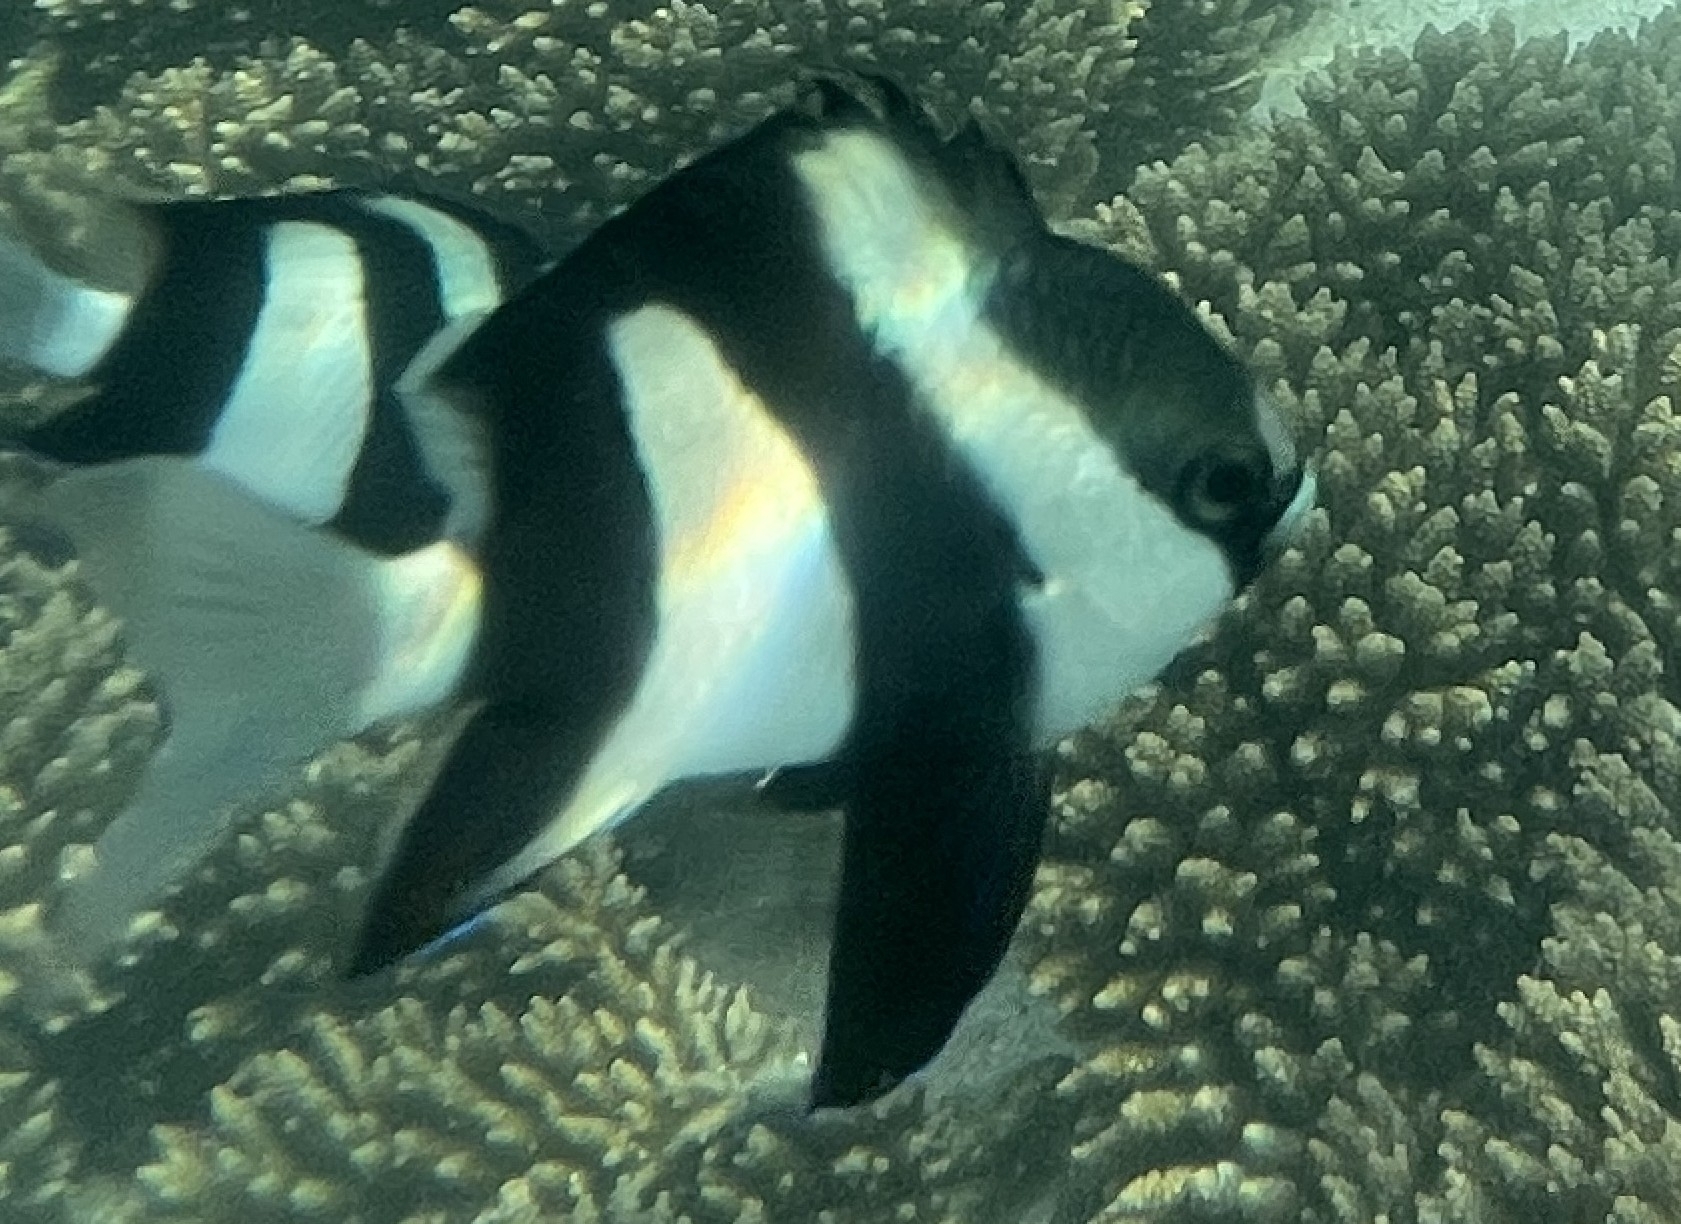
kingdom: Animalia
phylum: Chordata
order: Perciformes
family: Pomacentridae
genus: Dascyllus
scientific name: Dascyllus abudafur
